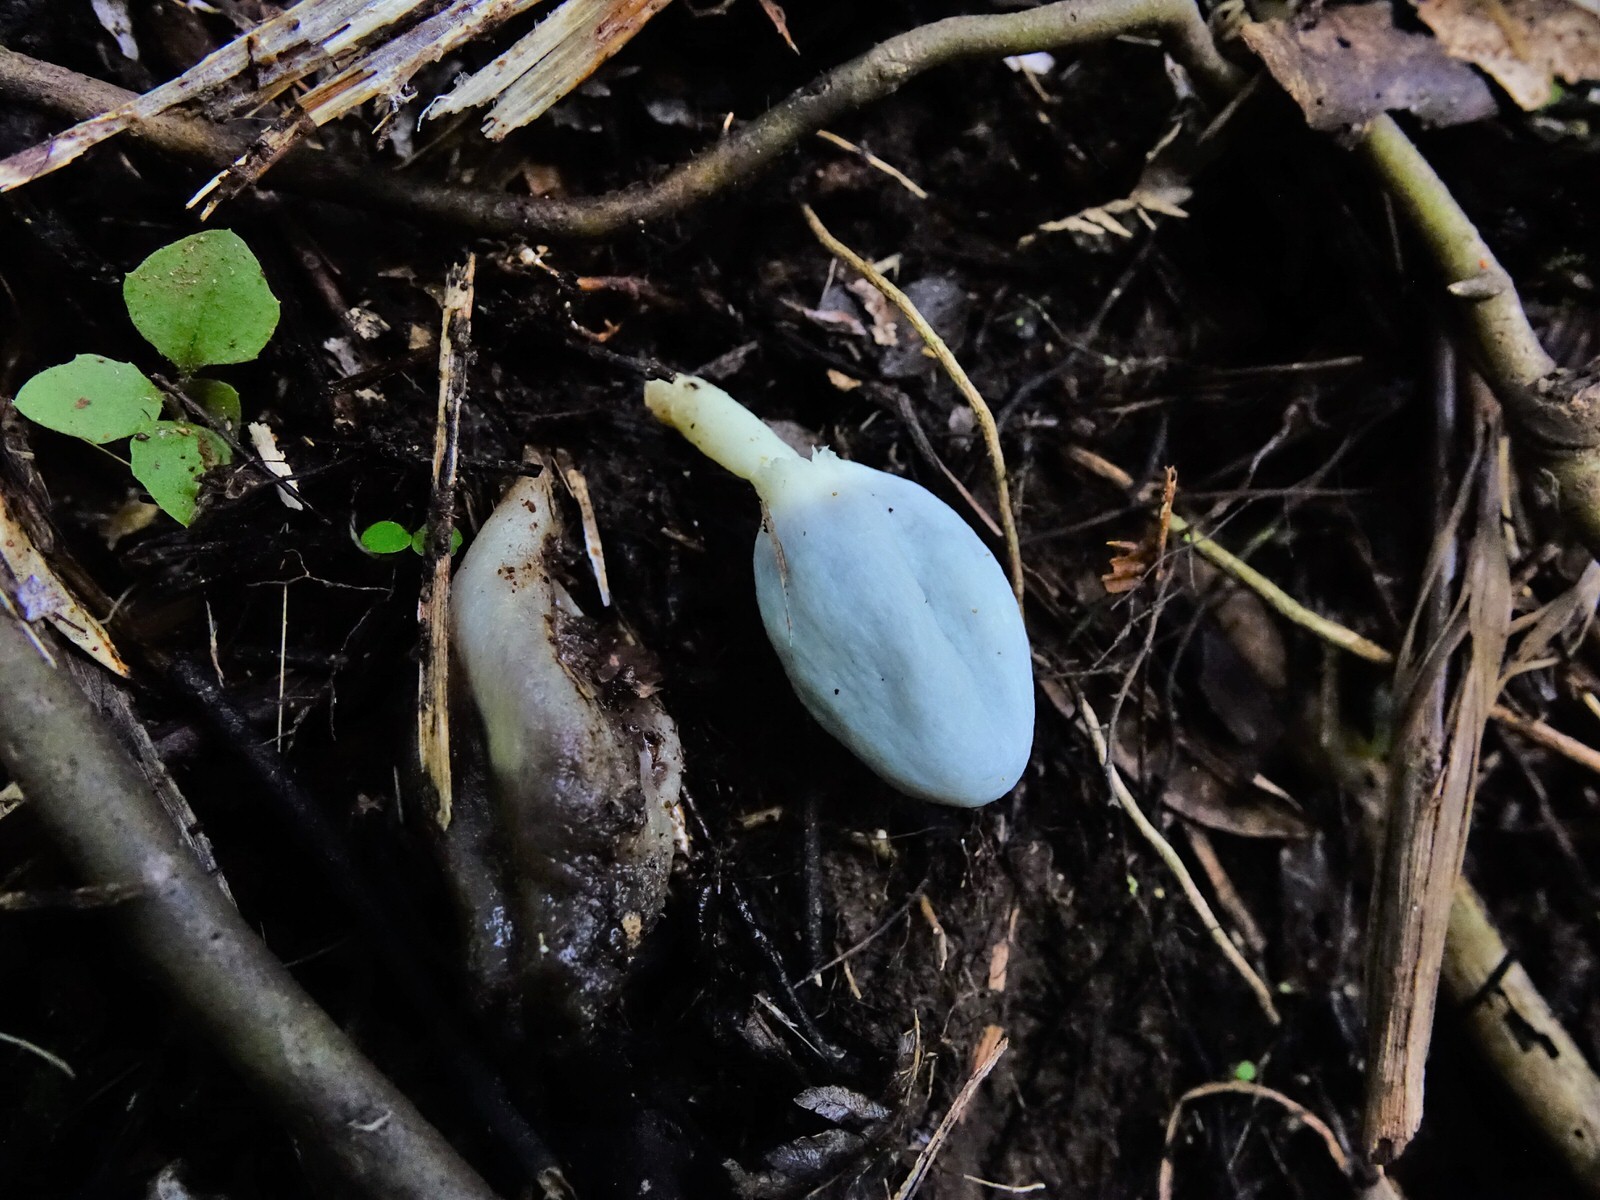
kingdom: Fungi
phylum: Basidiomycota
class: Agaricomycetes
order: Agaricales
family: Agaricaceae
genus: Clavogaster
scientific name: Clavogaster virescens
